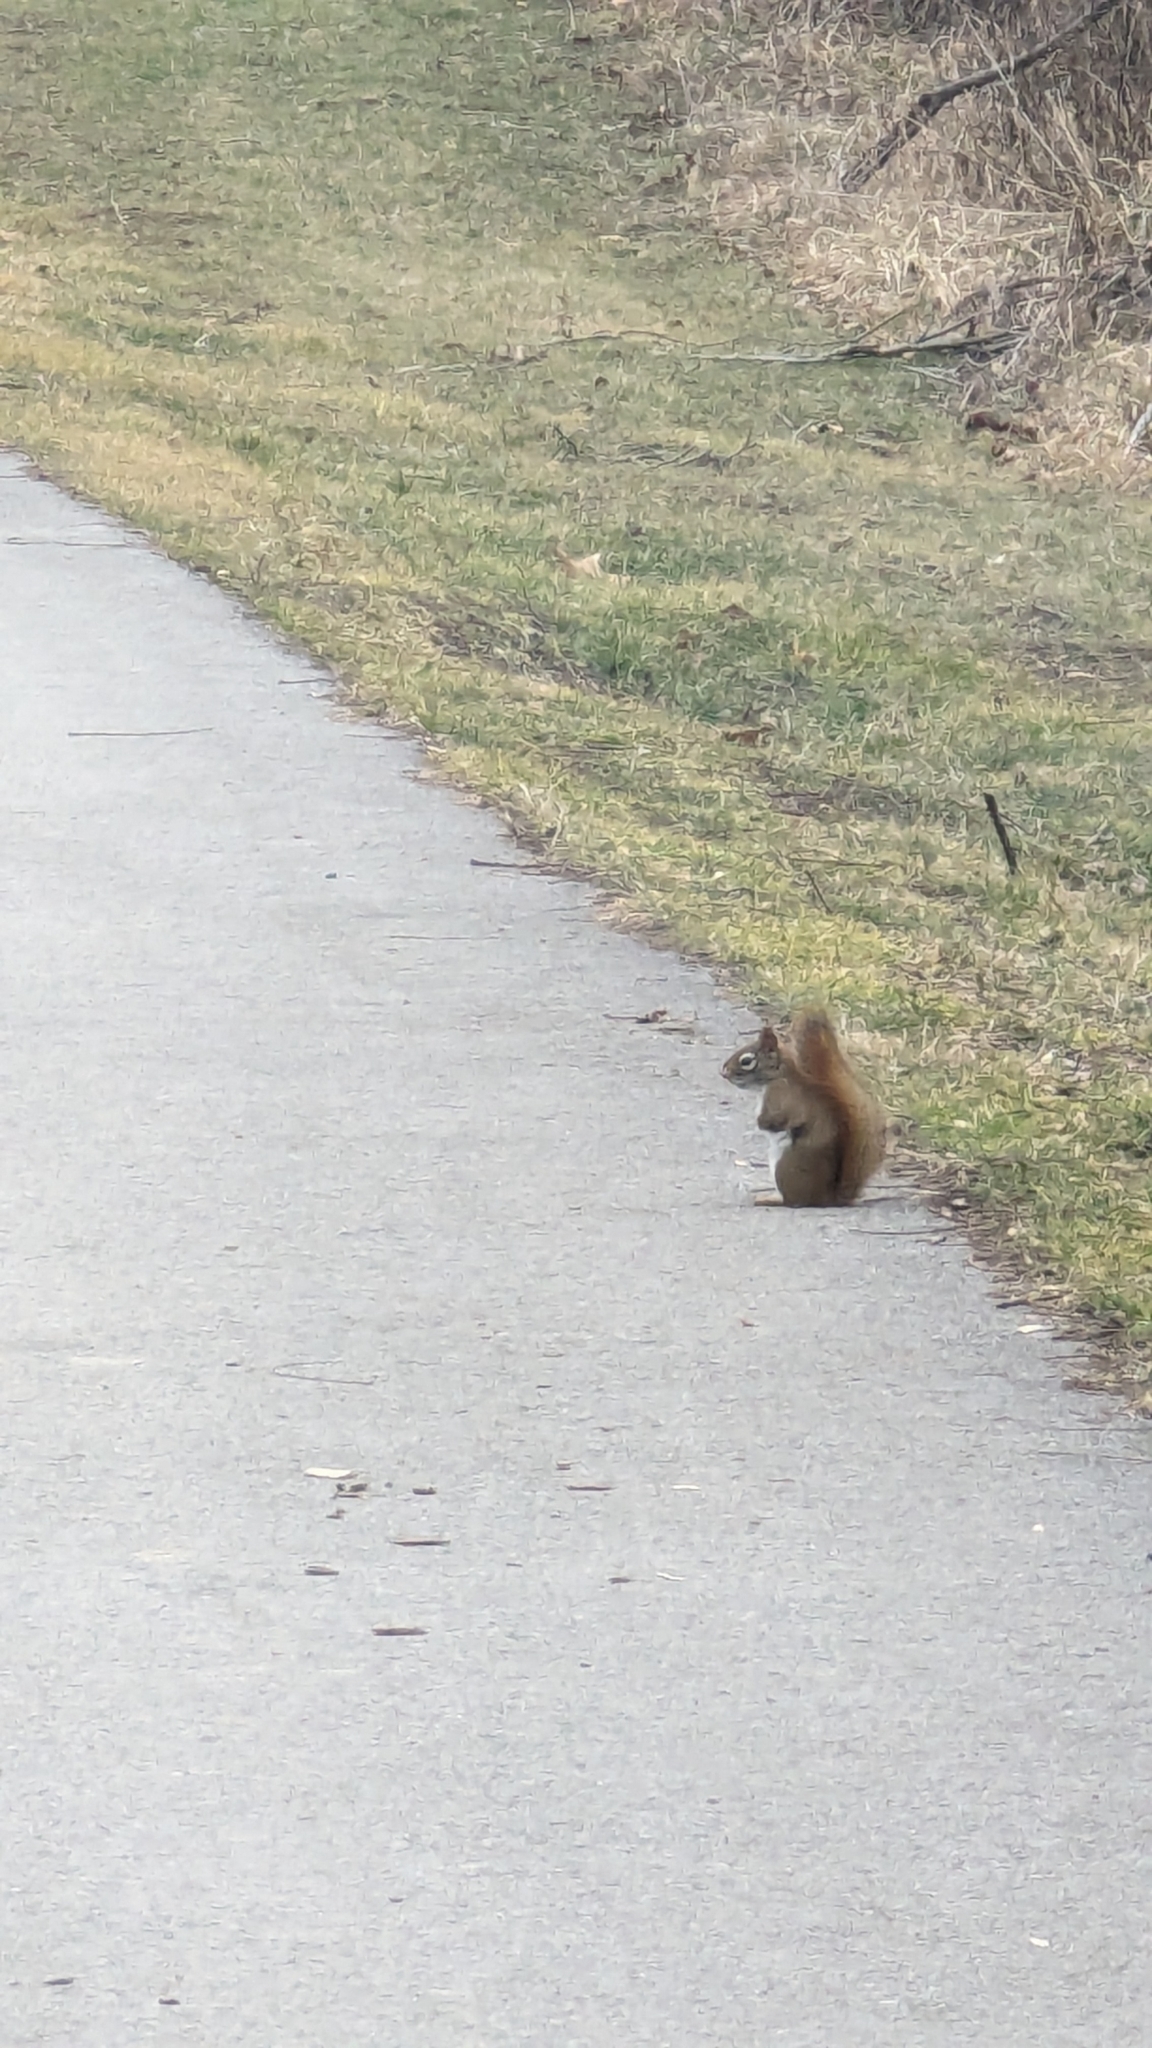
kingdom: Animalia
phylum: Chordata
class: Mammalia
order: Rodentia
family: Sciuridae
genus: Tamiasciurus
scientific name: Tamiasciurus hudsonicus
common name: Red squirrel
